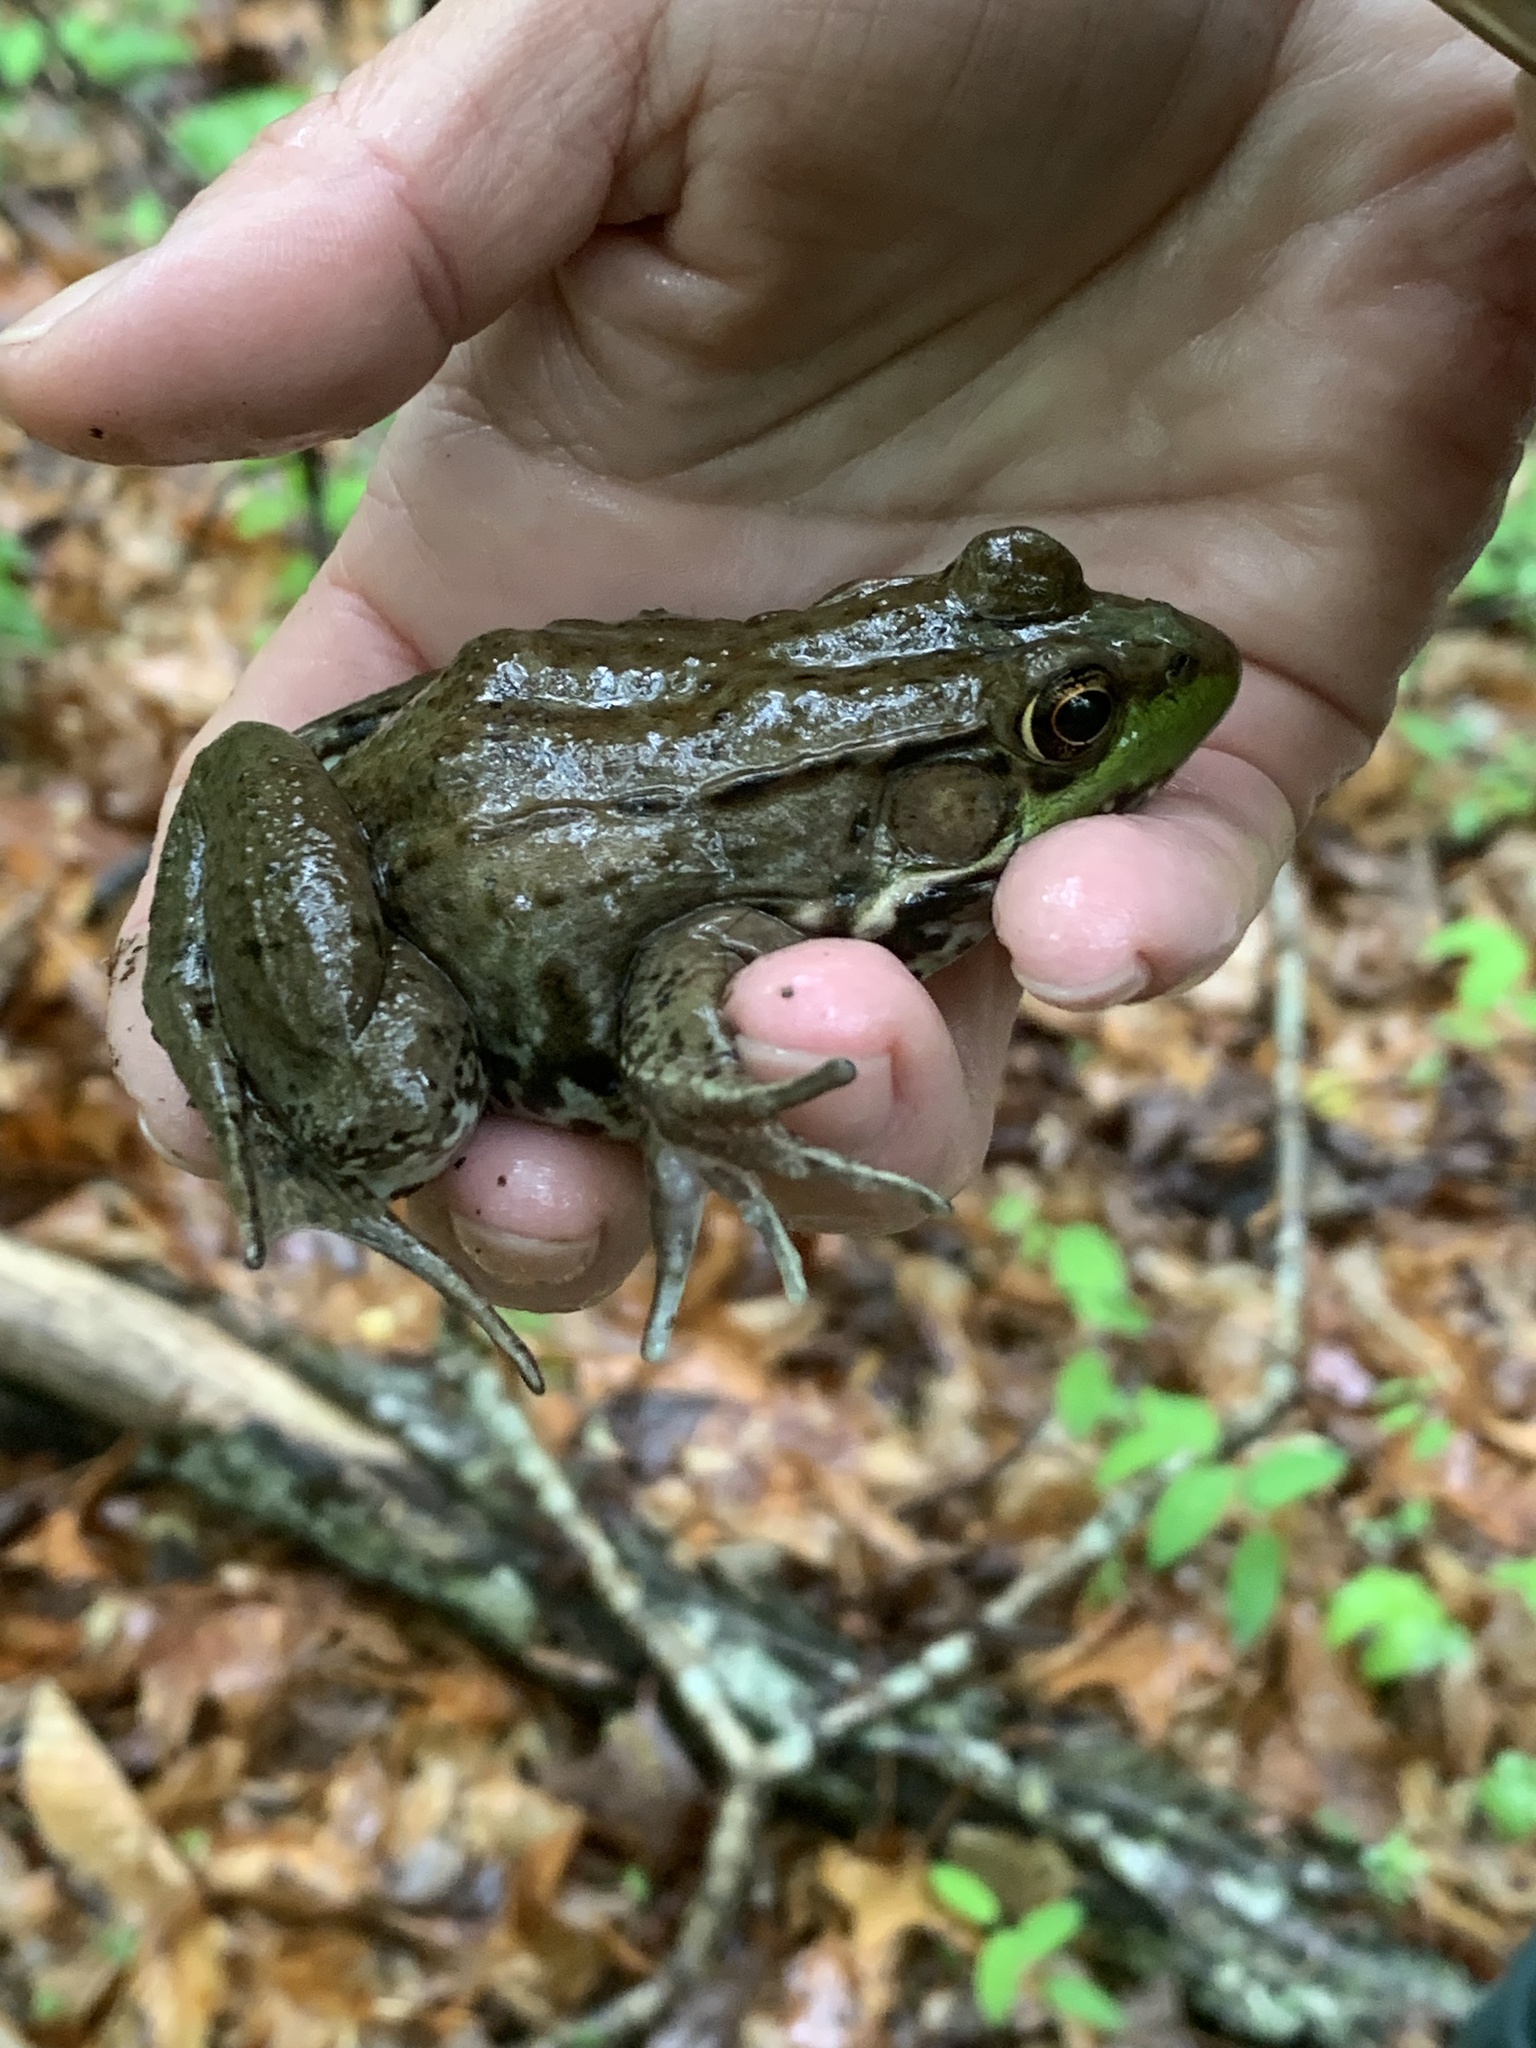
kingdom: Animalia
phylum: Chordata
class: Amphibia
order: Anura
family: Ranidae
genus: Lithobates
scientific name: Lithobates clamitans
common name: Green frog
